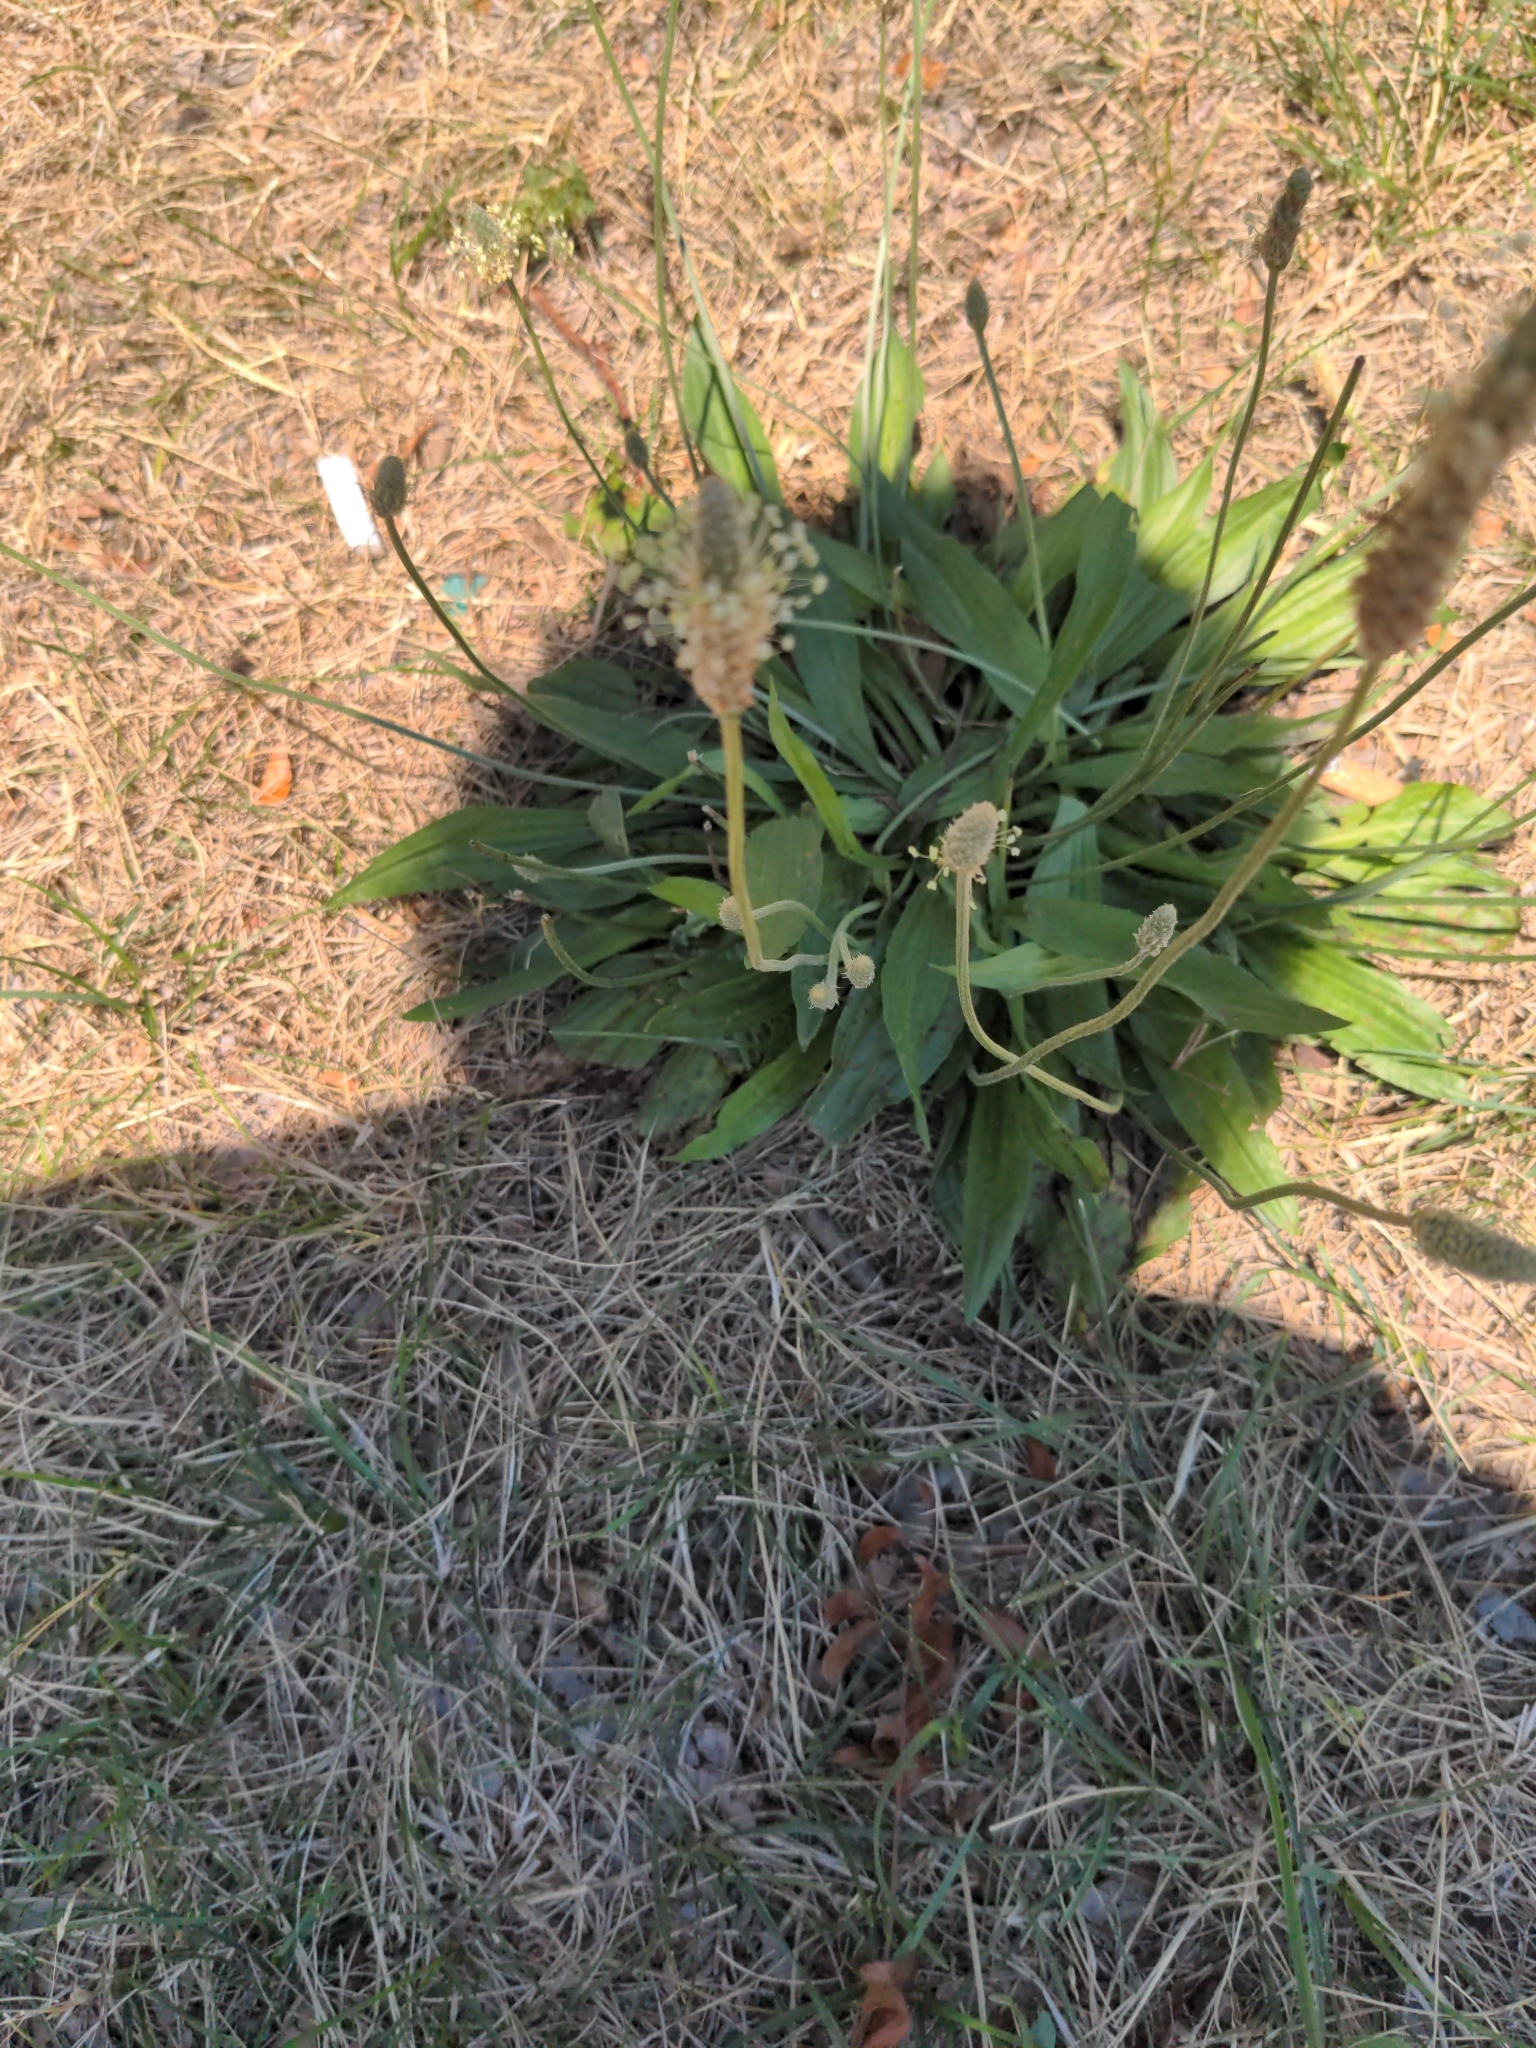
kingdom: Plantae
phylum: Tracheophyta
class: Magnoliopsida
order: Lamiales
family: Plantaginaceae
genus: Plantago
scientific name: Plantago lanceolata
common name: Ribwort plantain
